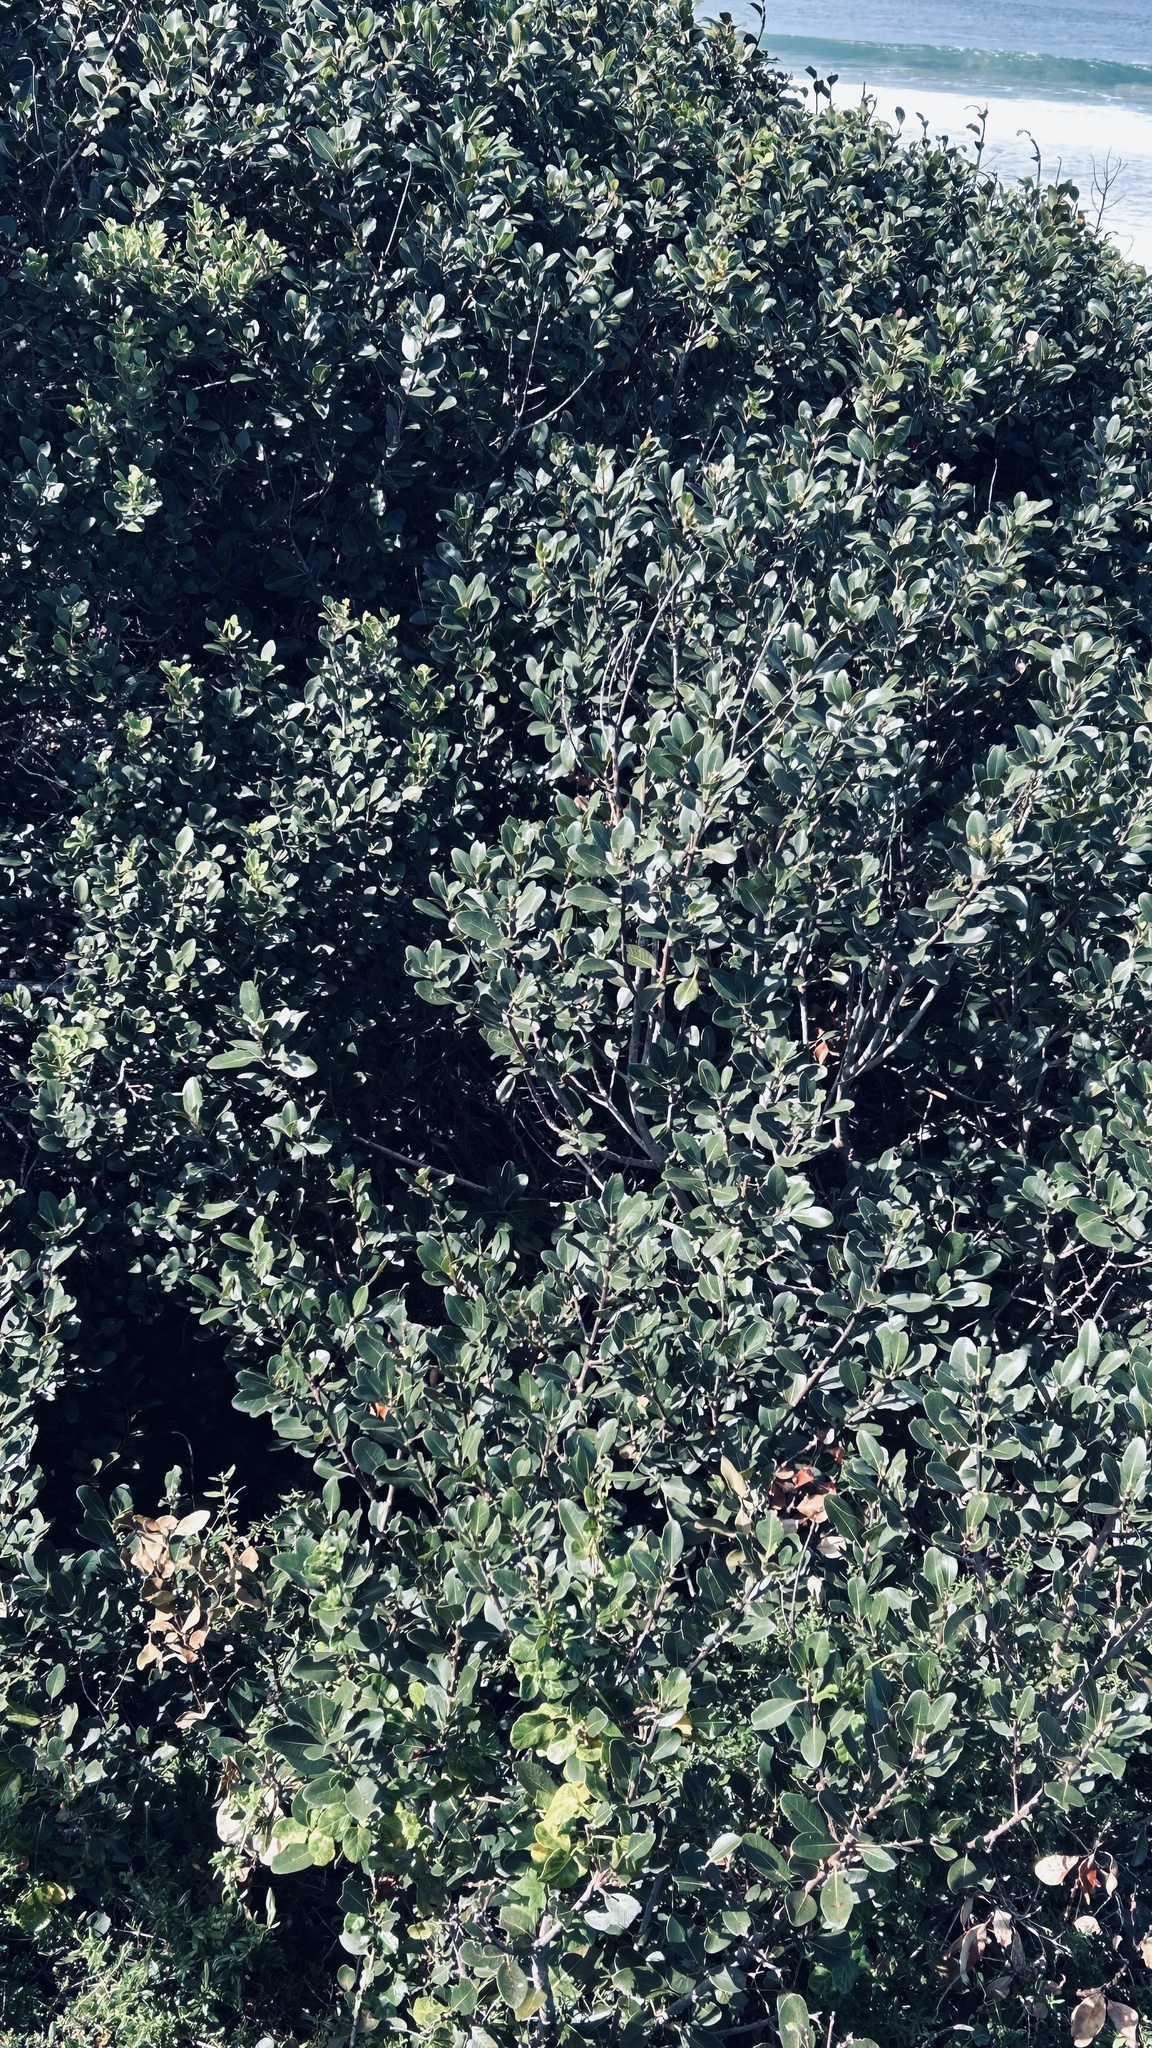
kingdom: Plantae
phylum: Tracheophyta
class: Magnoliopsida
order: Ericales
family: Sapotaceae
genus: Sideroxylon
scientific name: Sideroxylon inerme
